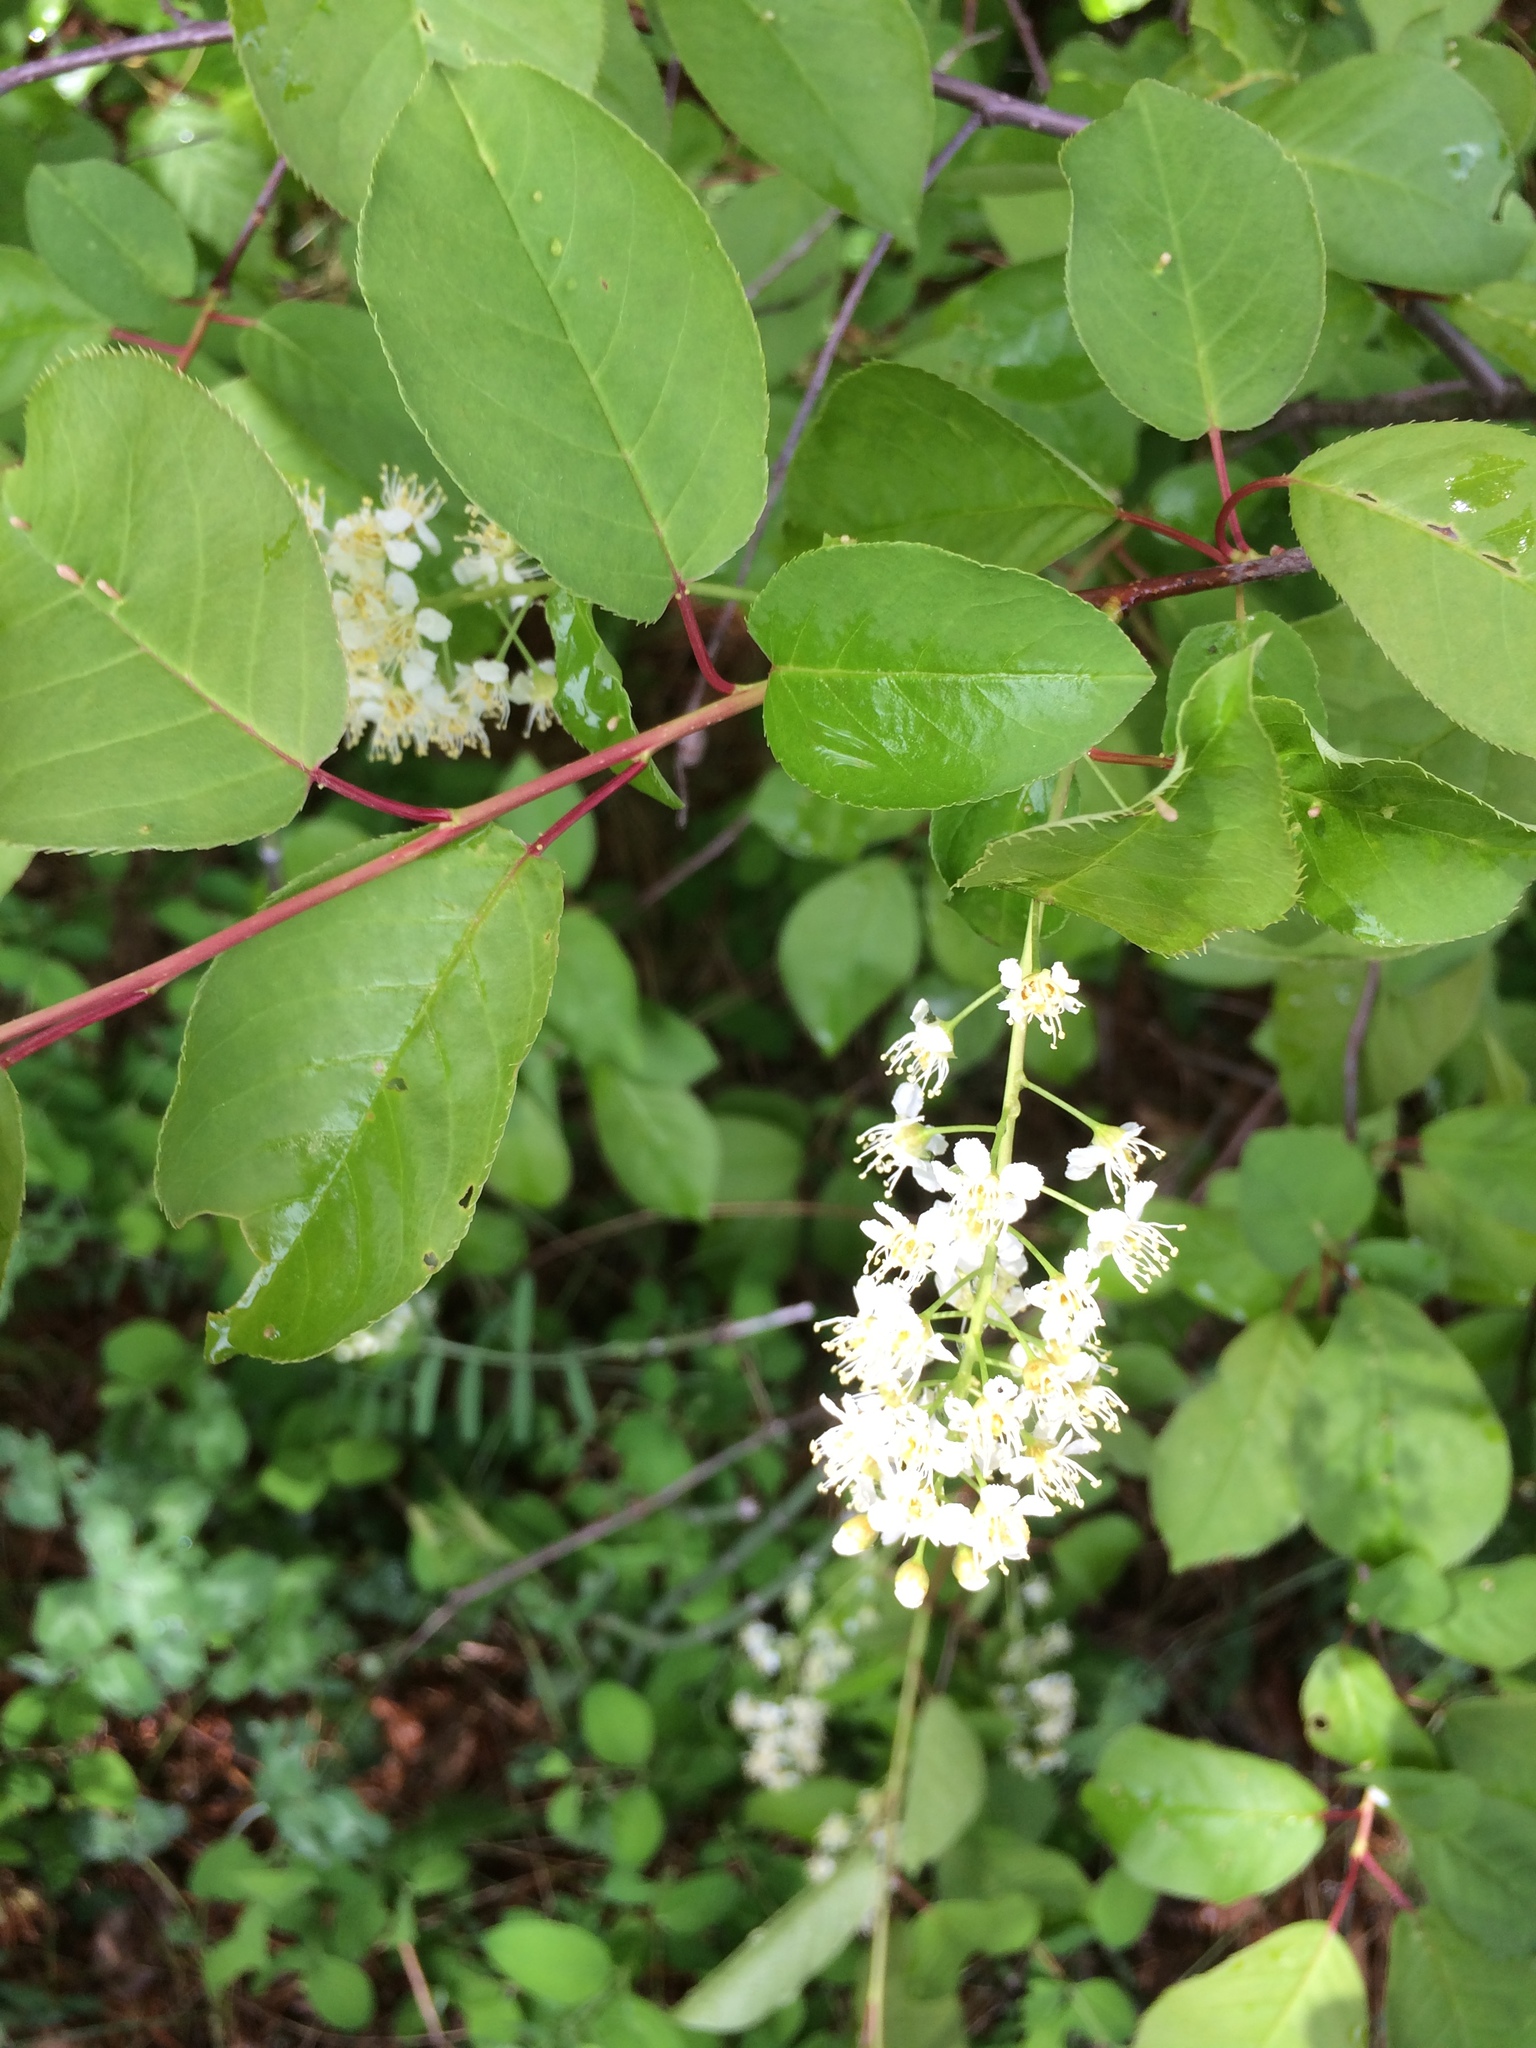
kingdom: Plantae
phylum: Tracheophyta
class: Magnoliopsida
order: Rosales
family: Rosaceae
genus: Prunus
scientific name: Prunus virginiana
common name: Chokecherry
